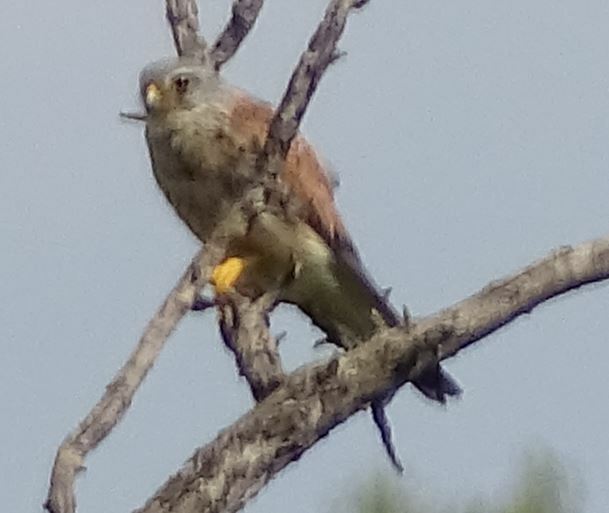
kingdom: Animalia
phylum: Chordata
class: Aves
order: Falconiformes
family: Falconidae
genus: Falco
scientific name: Falco tinnunculus
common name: Common kestrel
